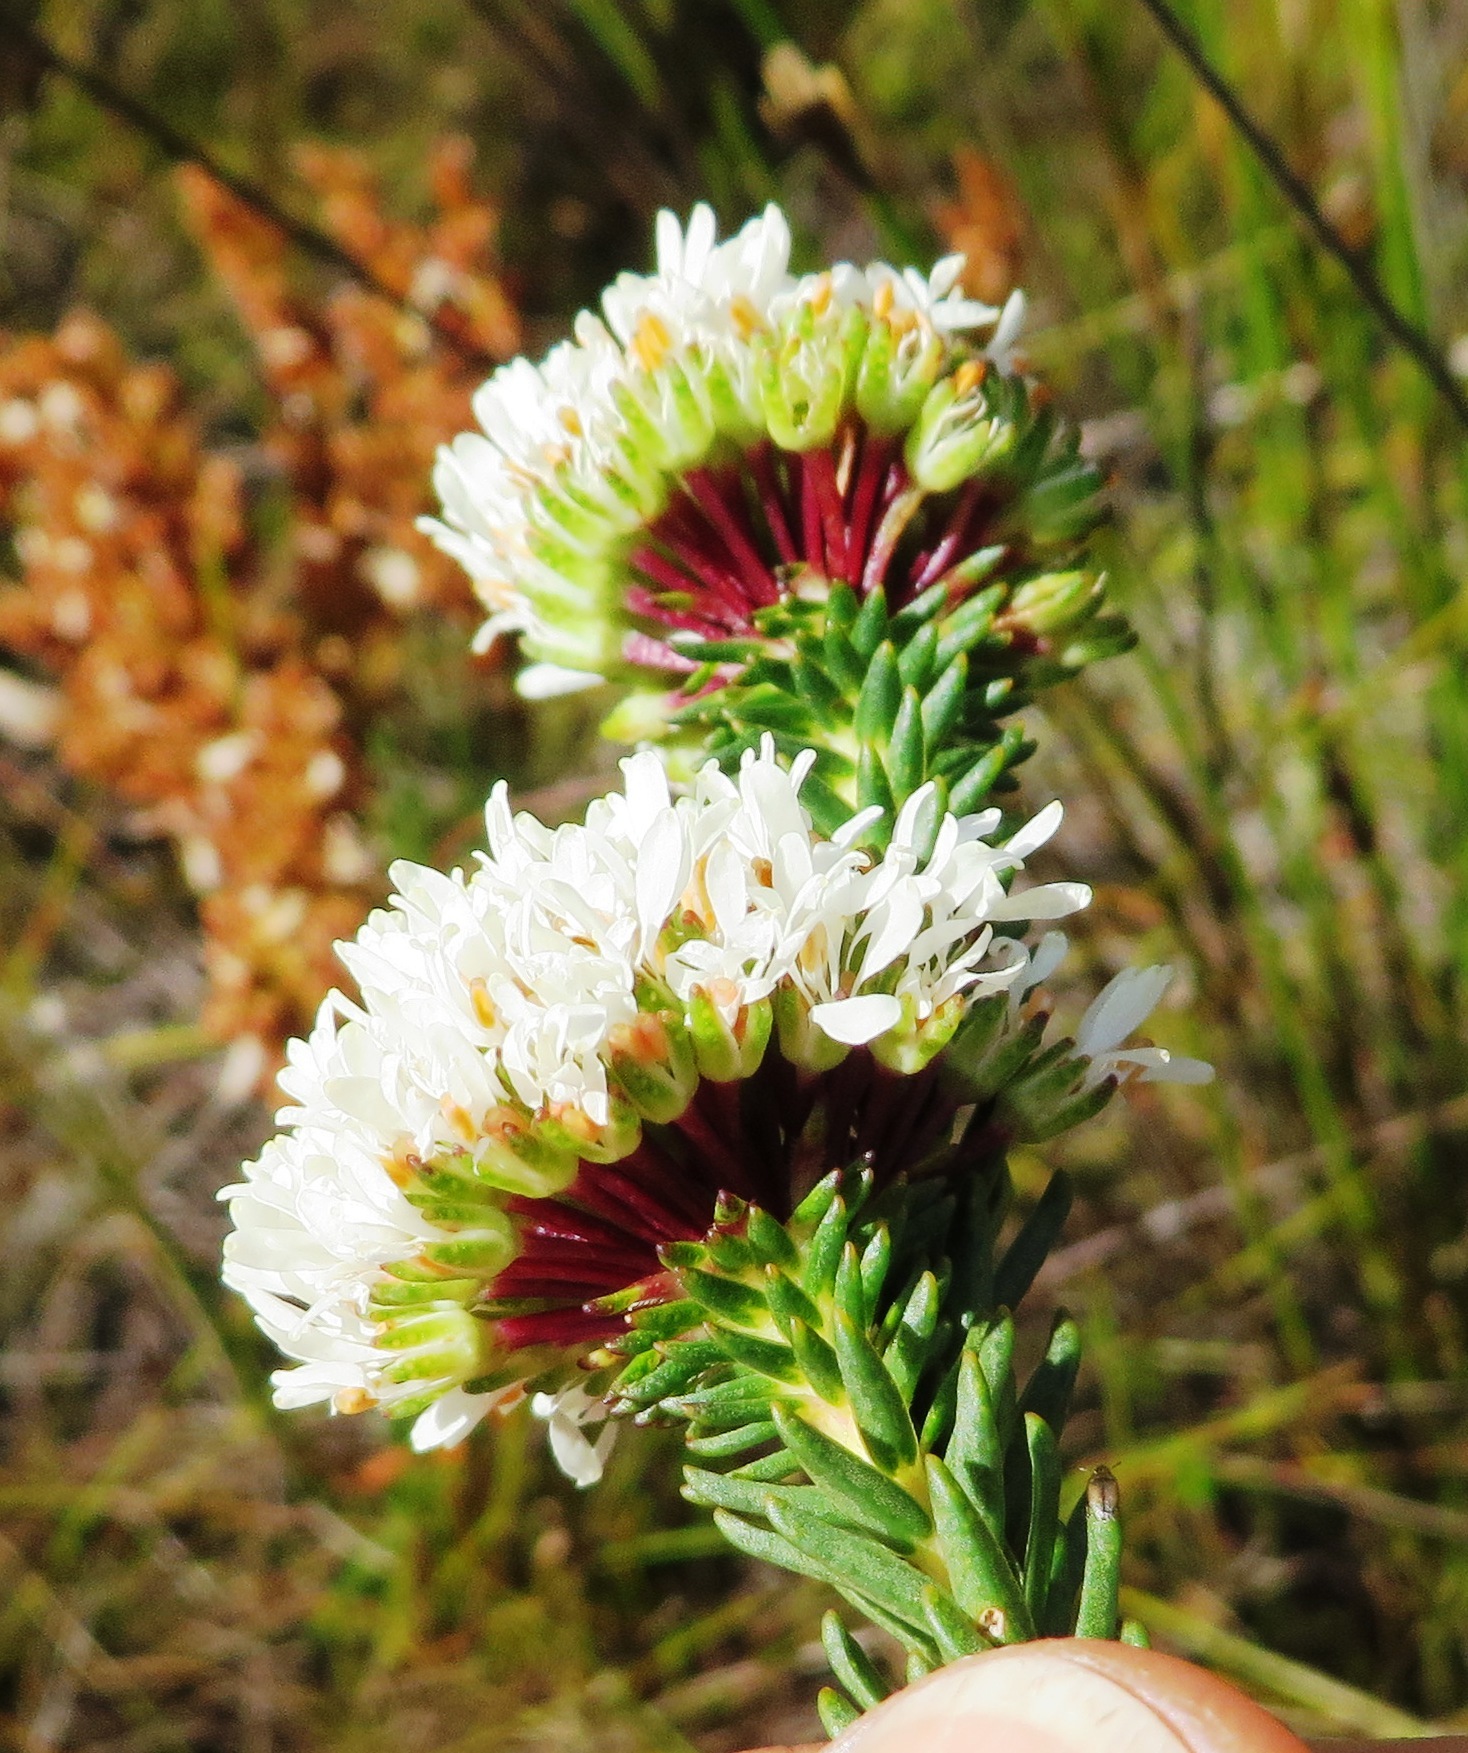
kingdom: Plantae
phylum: Tracheophyta
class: Magnoliopsida
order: Sapindales
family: Rutaceae
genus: Agathosma
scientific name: Agathosma bifida
